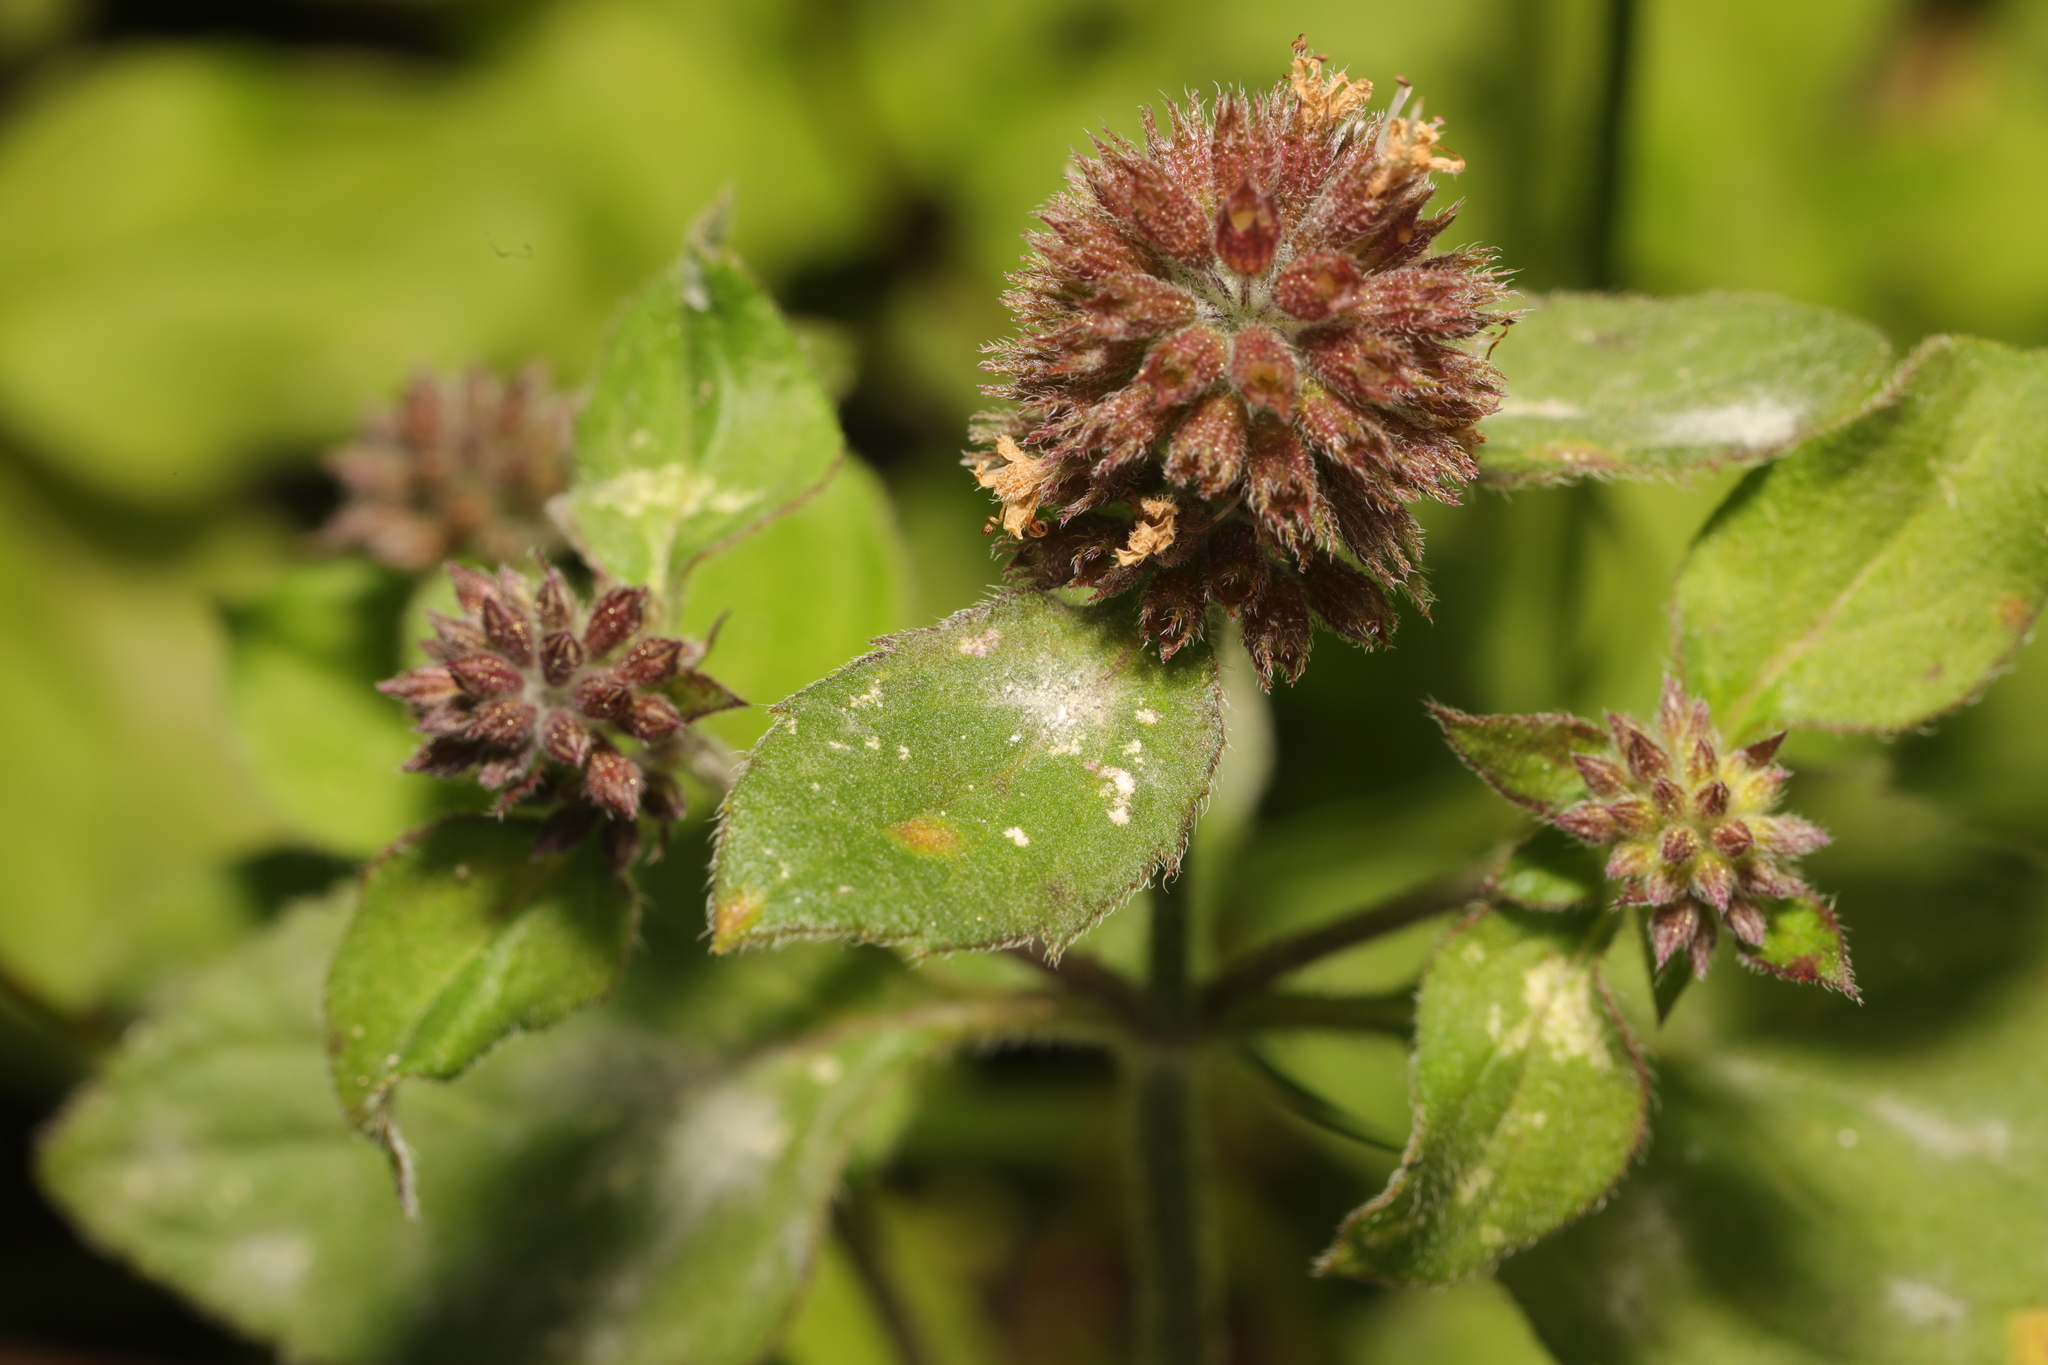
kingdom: Plantae
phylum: Tracheophyta
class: Magnoliopsida
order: Lamiales
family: Lamiaceae
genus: Mentha
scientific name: Mentha aquatica
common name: Water mint
